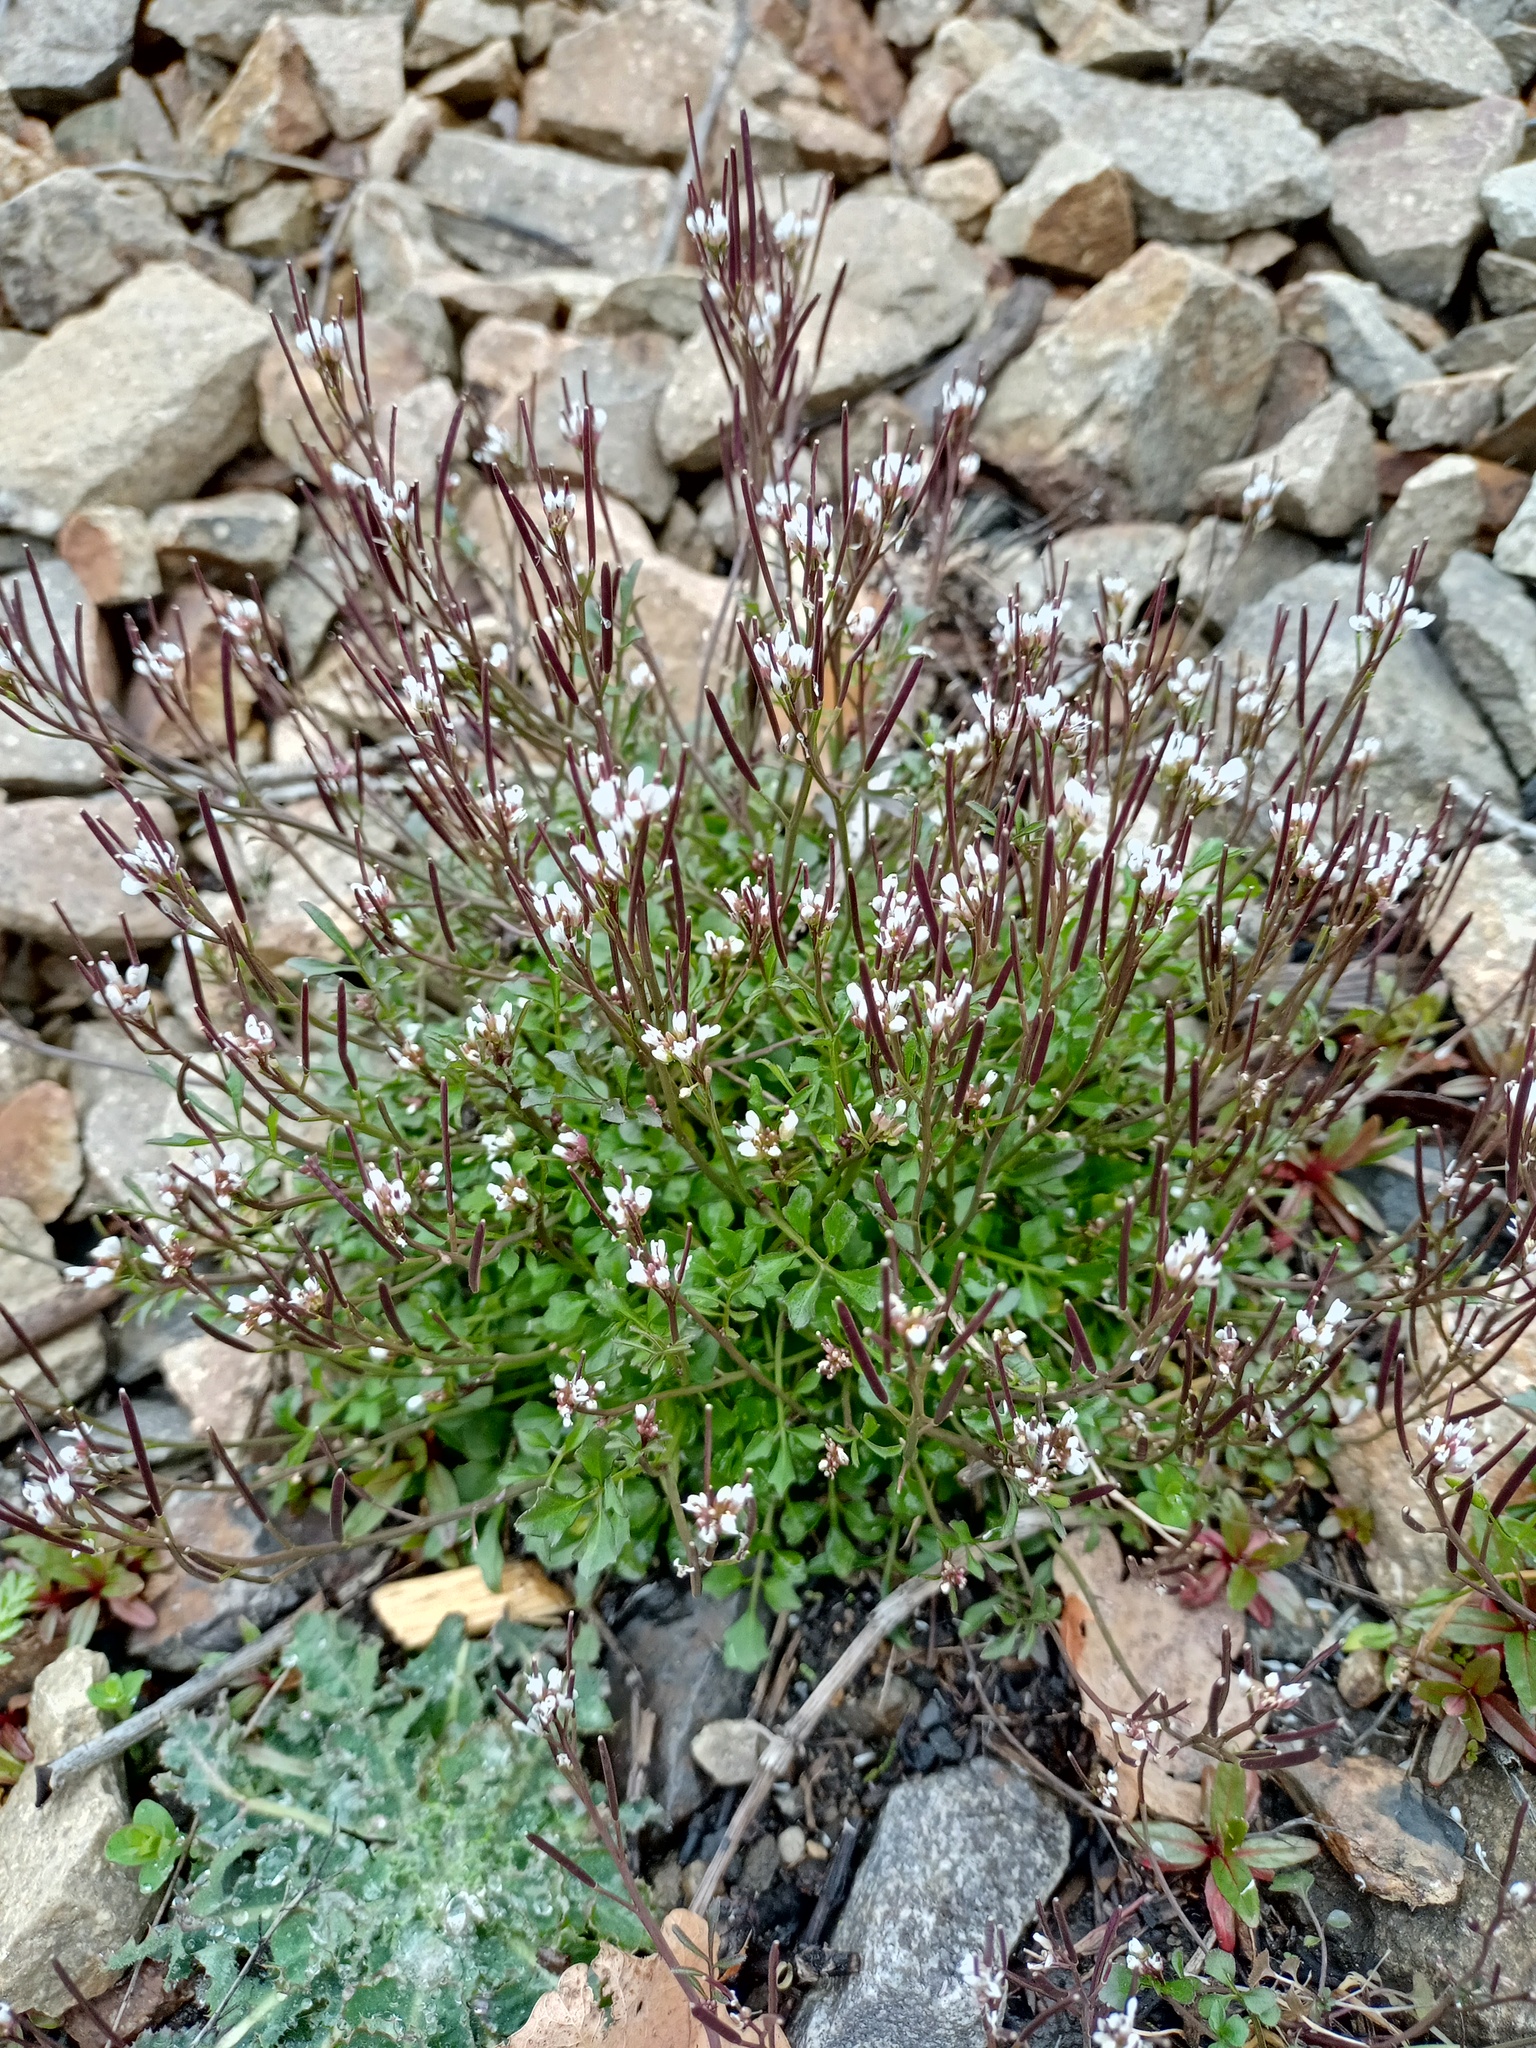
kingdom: Plantae
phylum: Tracheophyta
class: Magnoliopsida
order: Brassicales
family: Brassicaceae
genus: Cardamine
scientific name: Cardamine hirsuta
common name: Hairy bittercress
